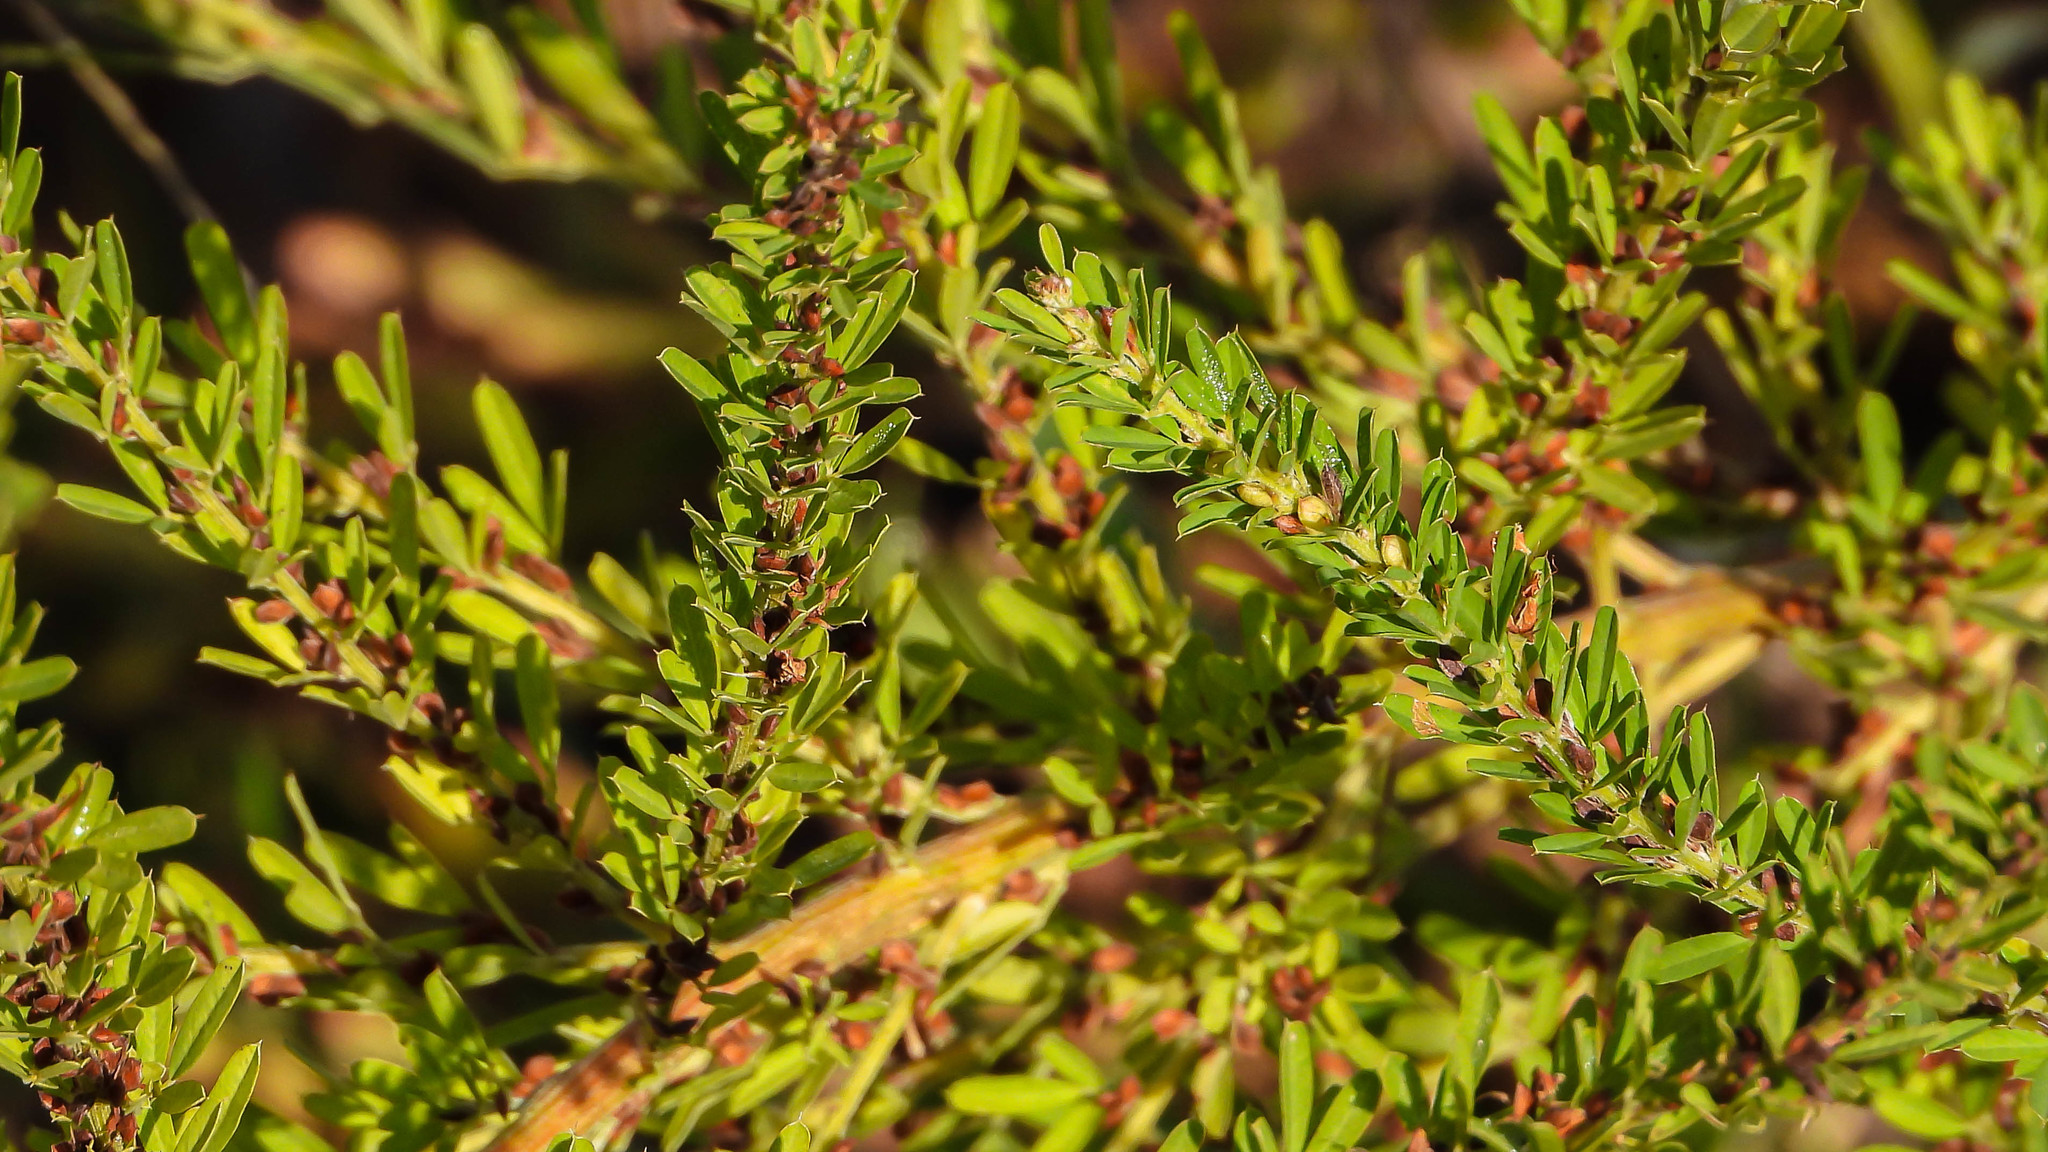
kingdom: Plantae
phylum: Tracheophyta
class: Magnoliopsida
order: Fabales
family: Fabaceae
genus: Lespedeza
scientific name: Lespedeza cuneata
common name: Chinese bush-clover
